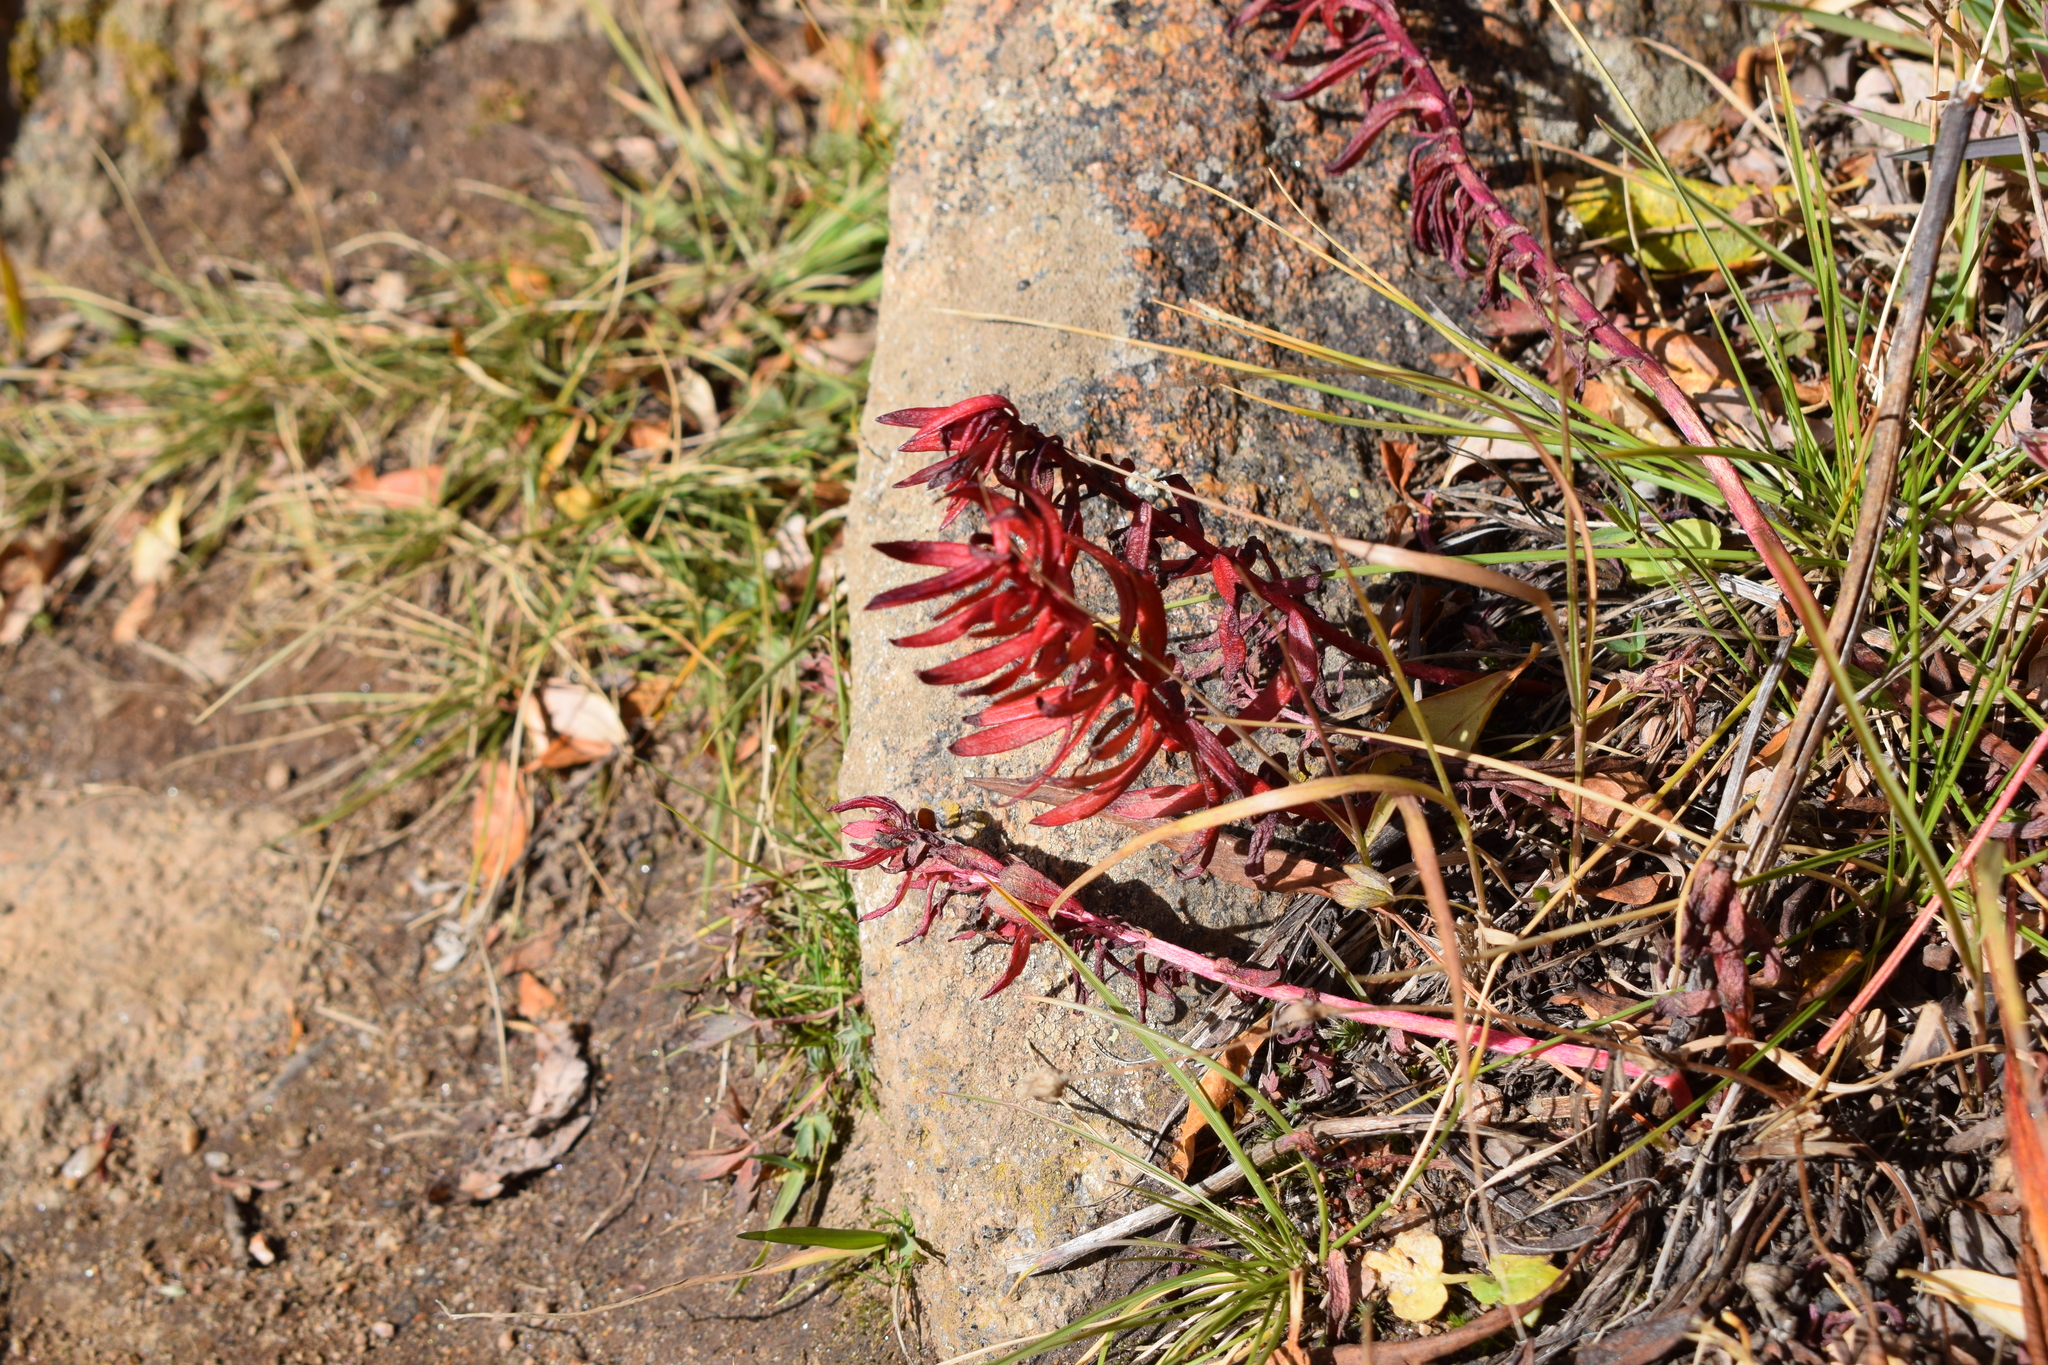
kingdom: Plantae
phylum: Tracheophyta
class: Magnoliopsida
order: Saxifragales
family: Crassulaceae
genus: Rhodiola
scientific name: Rhodiola integrifolia
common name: Western roseroot
